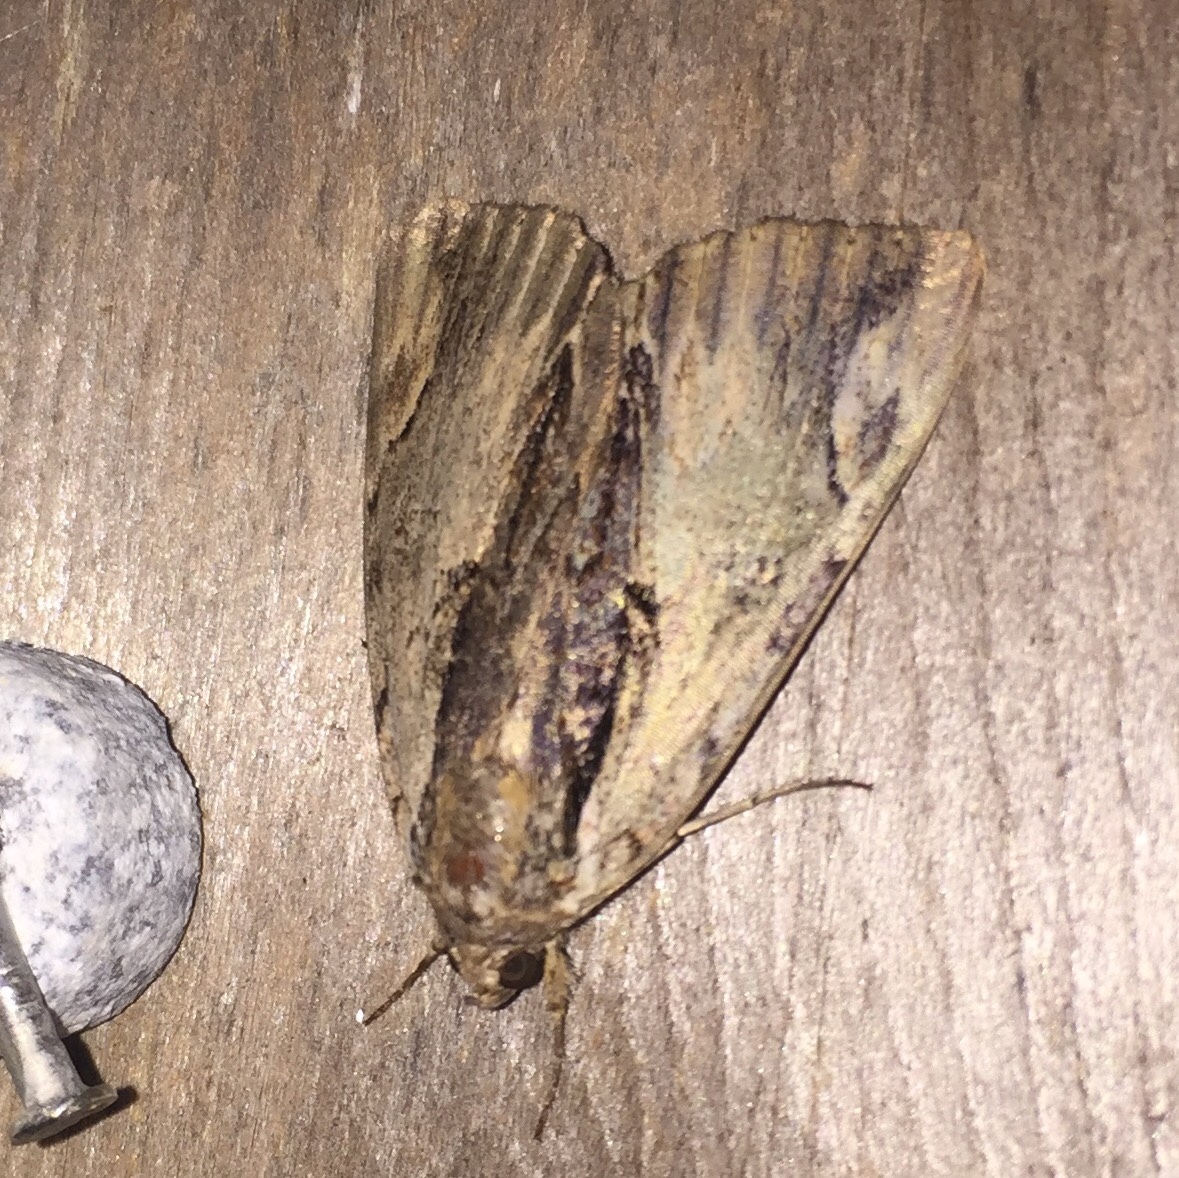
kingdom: Animalia
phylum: Arthropoda
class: Insecta
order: Lepidoptera
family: Erebidae
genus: Catocala
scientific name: Catocala ultronia
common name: Ultronia underwing
